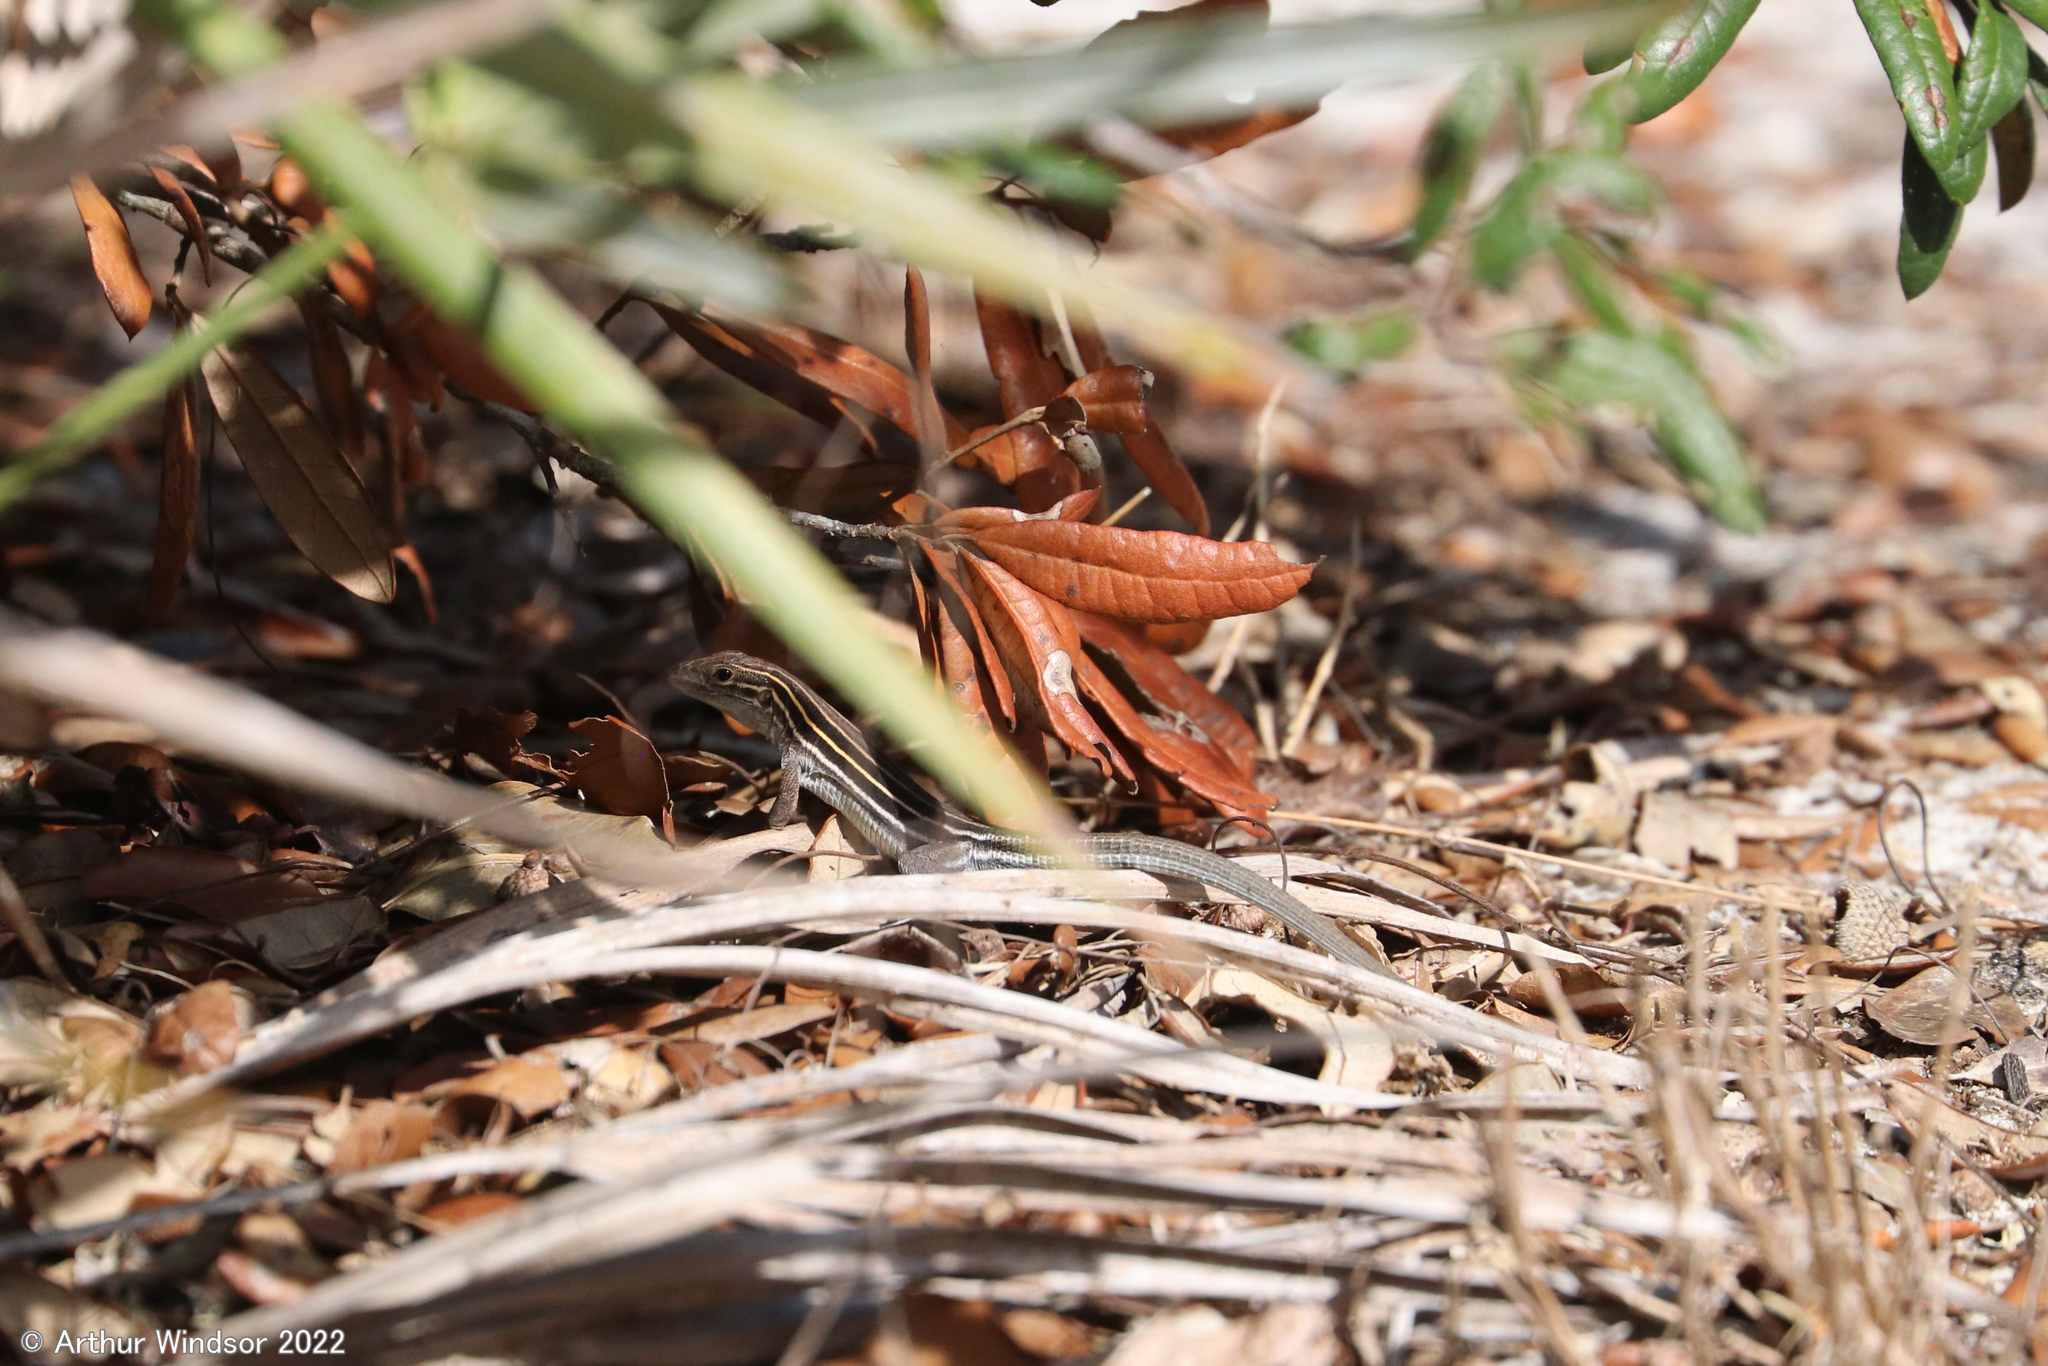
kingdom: Animalia
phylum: Chordata
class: Squamata
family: Teiidae
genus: Aspidoscelis
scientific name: Aspidoscelis sexlineatus
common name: Six-lined racerunner
